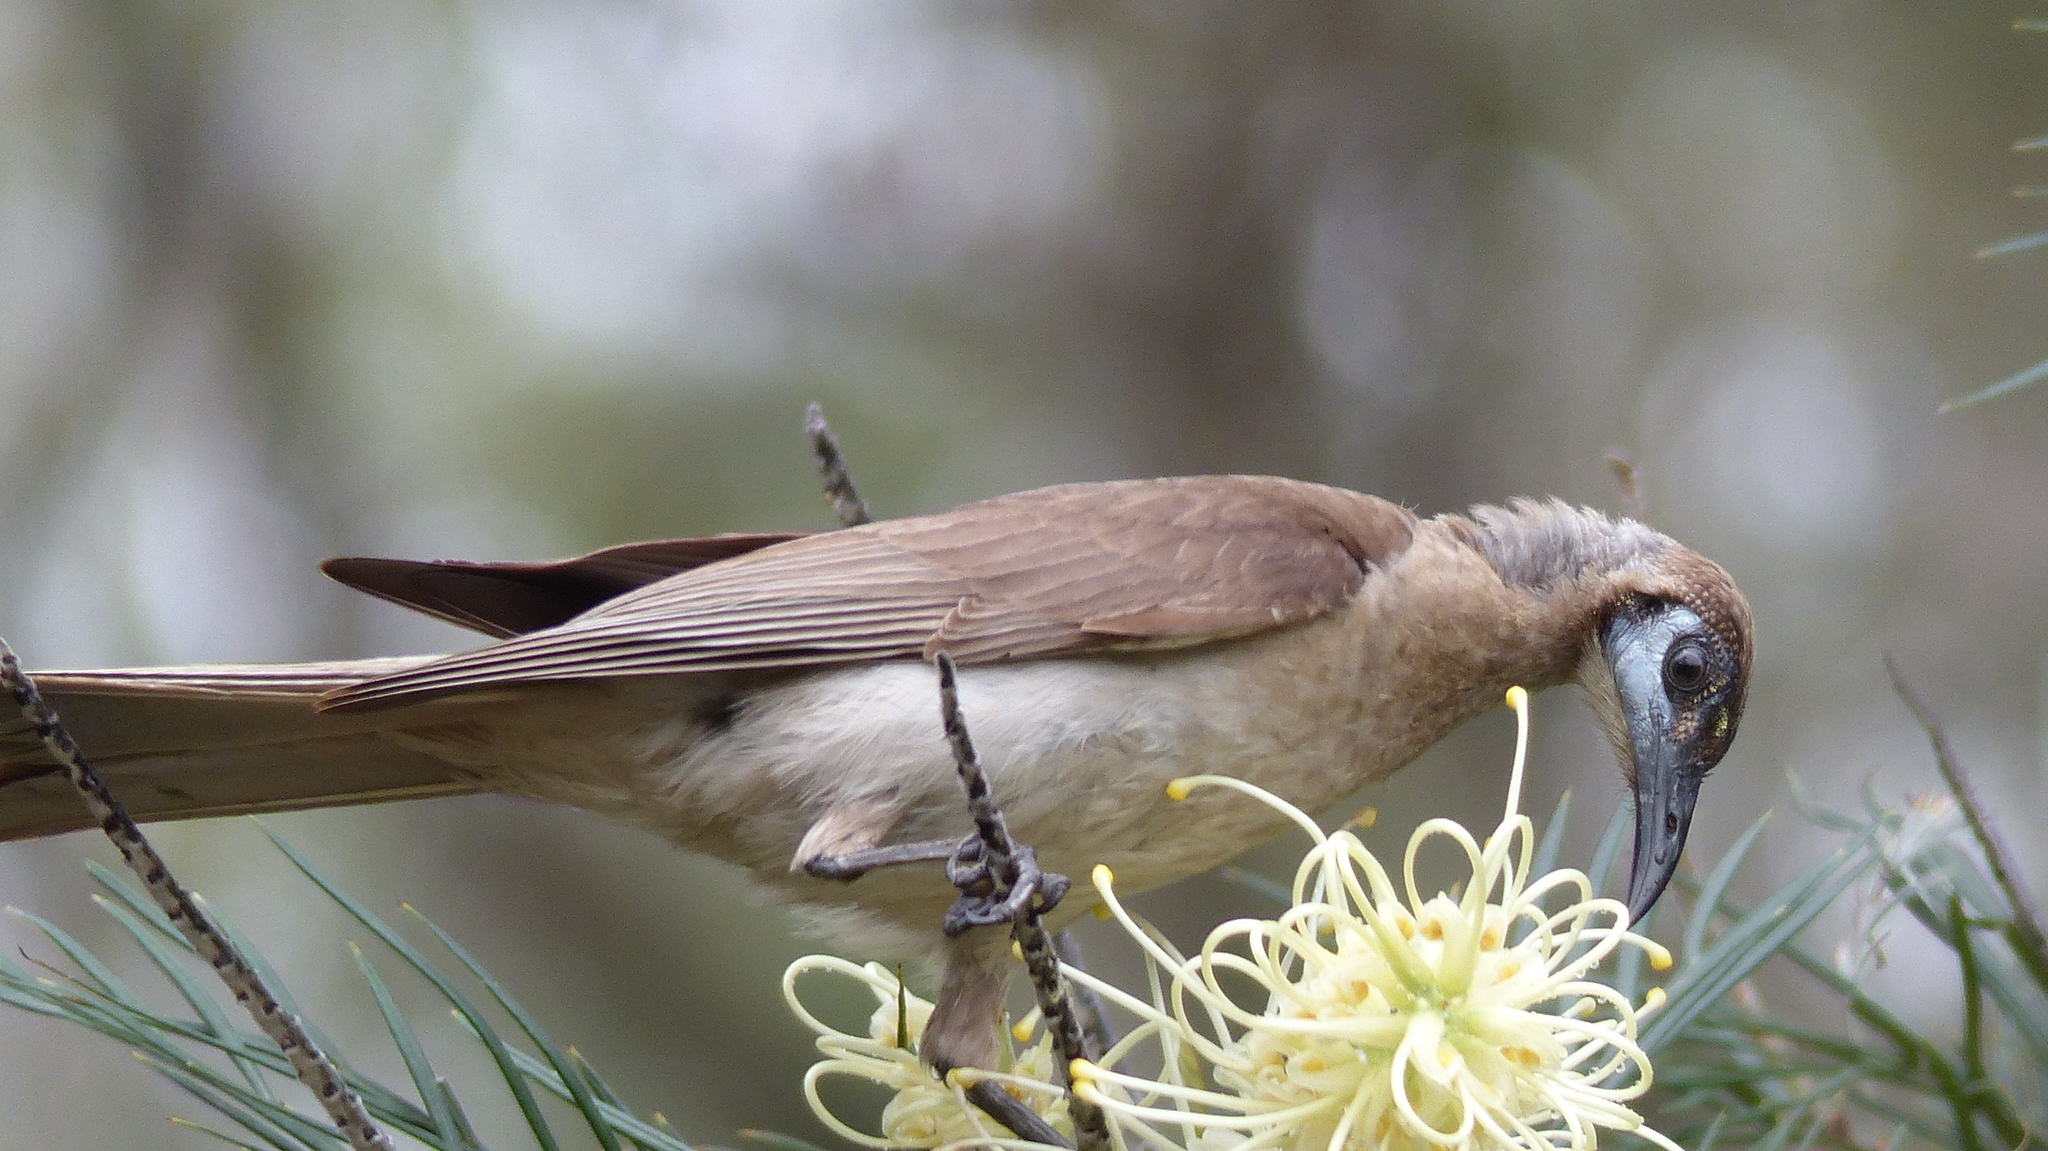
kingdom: Animalia
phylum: Chordata
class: Aves
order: Passeriformes
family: Meliphagidae
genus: Philemon
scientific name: Philemon citreogularis
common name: Little friarbird
